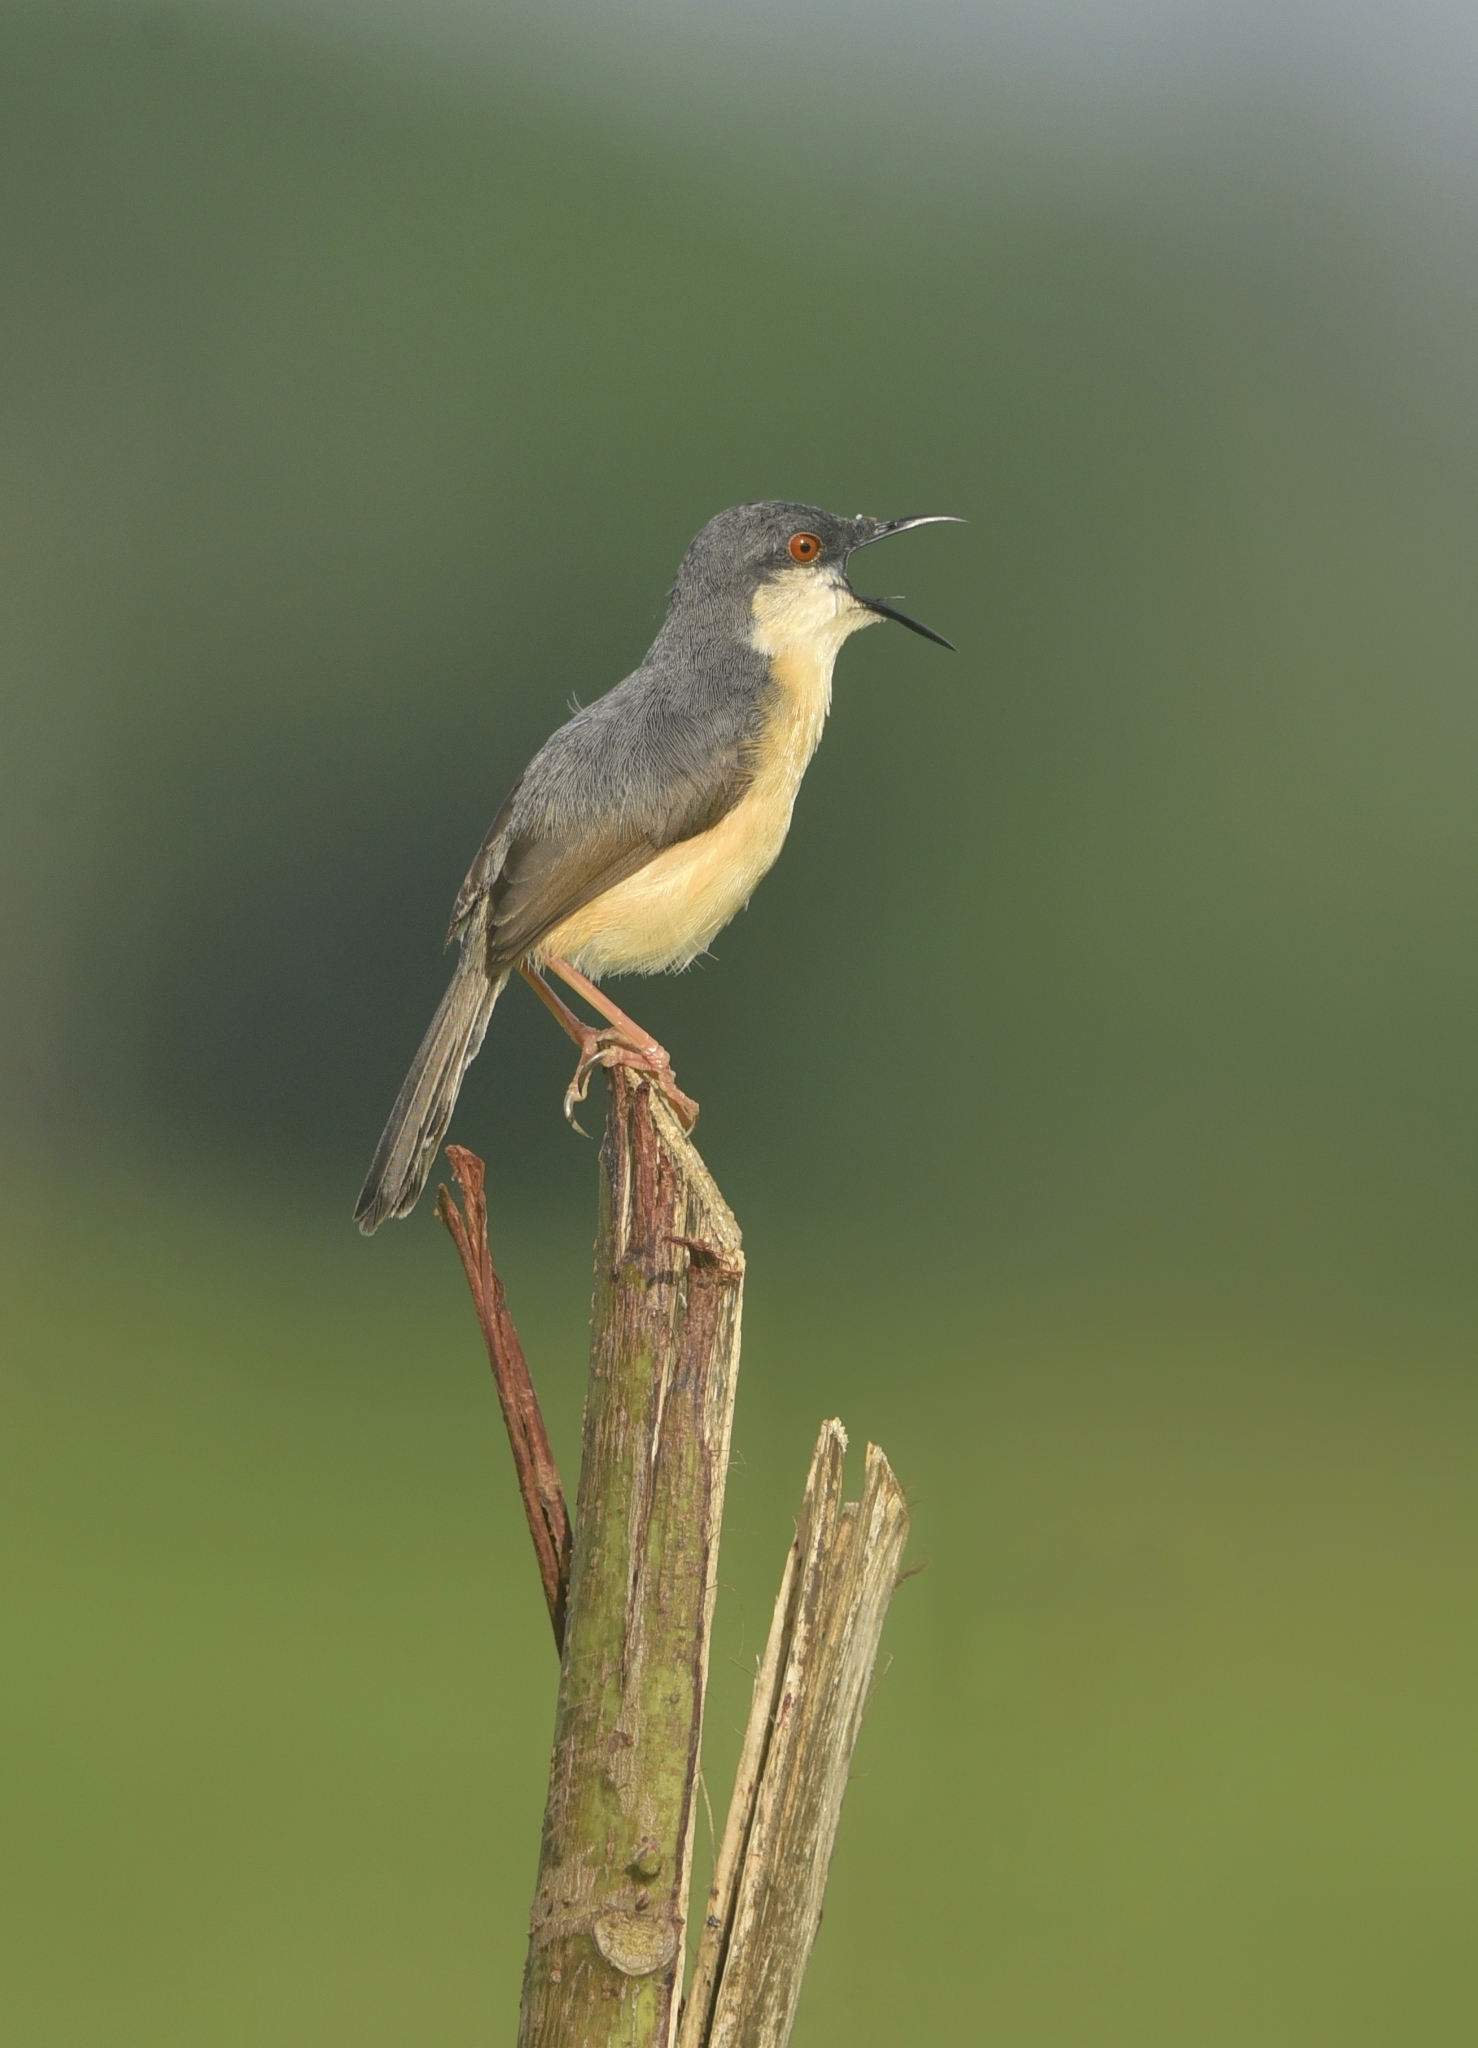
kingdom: Animalia
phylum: Chordata
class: Aves
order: Passeriformes
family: Cisticolidae
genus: Prinia
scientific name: Prinia socialis
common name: Ashy prinia
